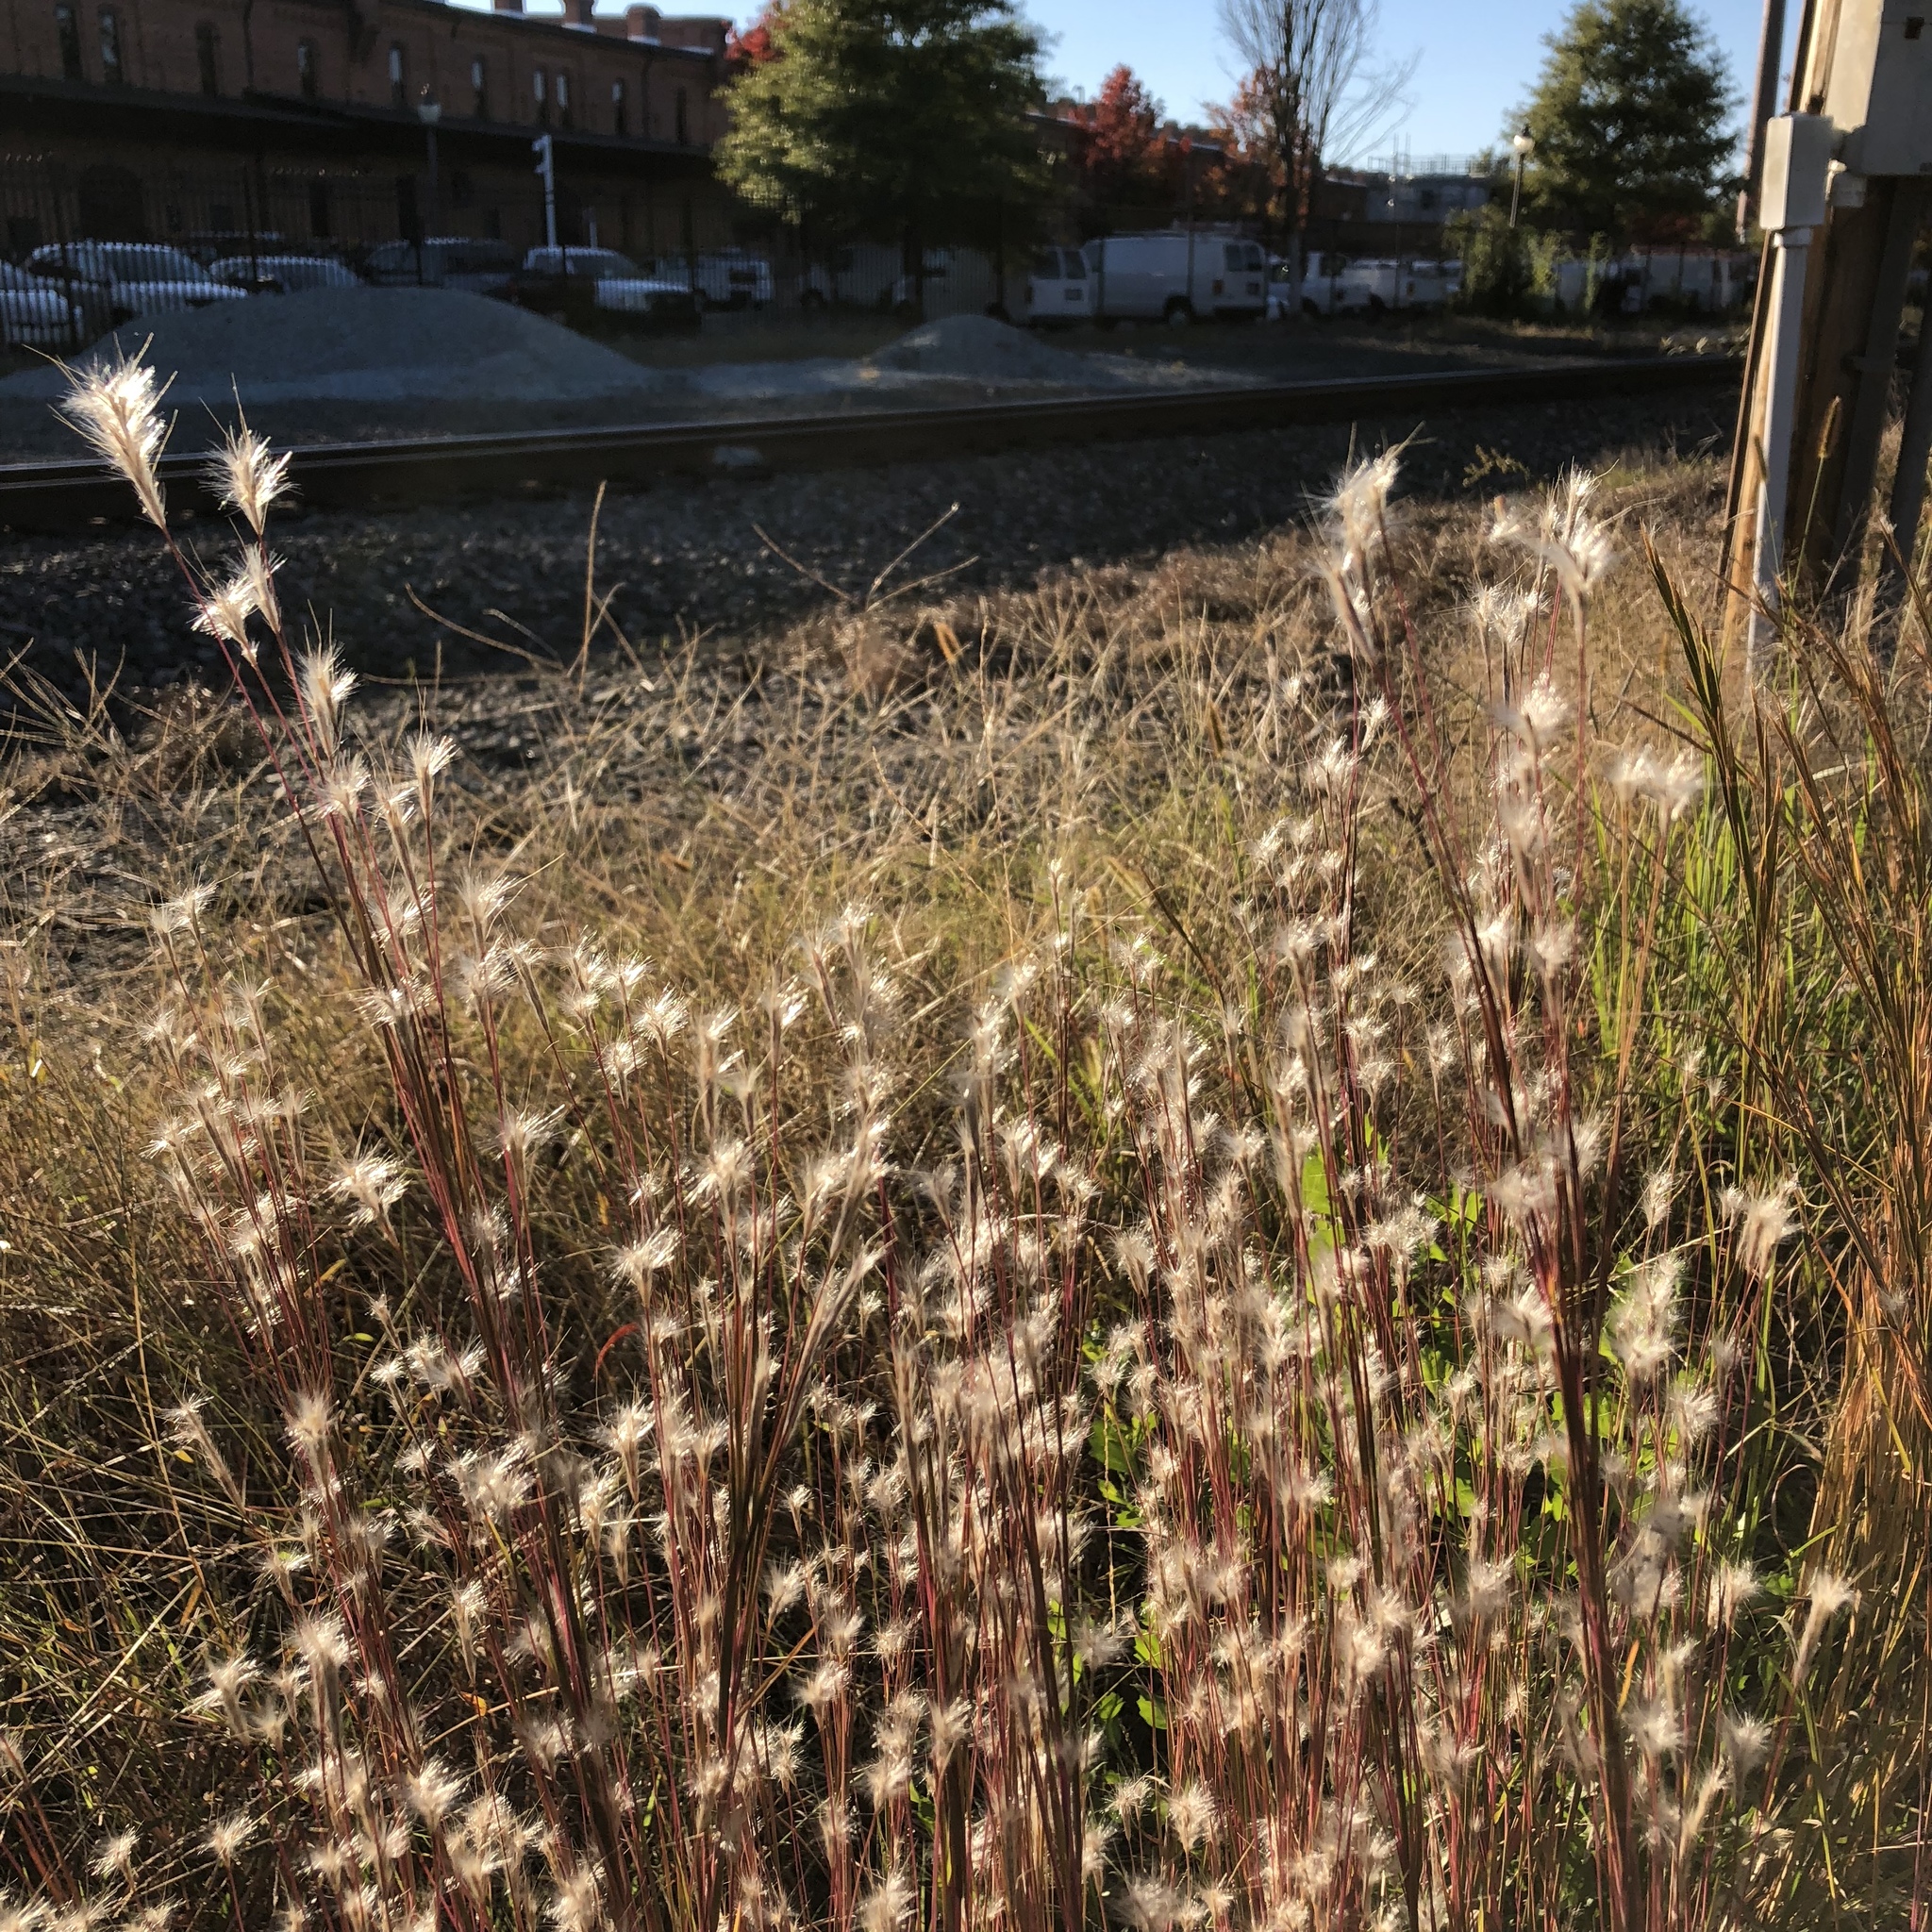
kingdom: Plantae
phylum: Tracheophyta
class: Liliopsida
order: Poales
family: Poaceae
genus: Andropogon
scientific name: Andropogon ternarius
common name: Split bluestem
